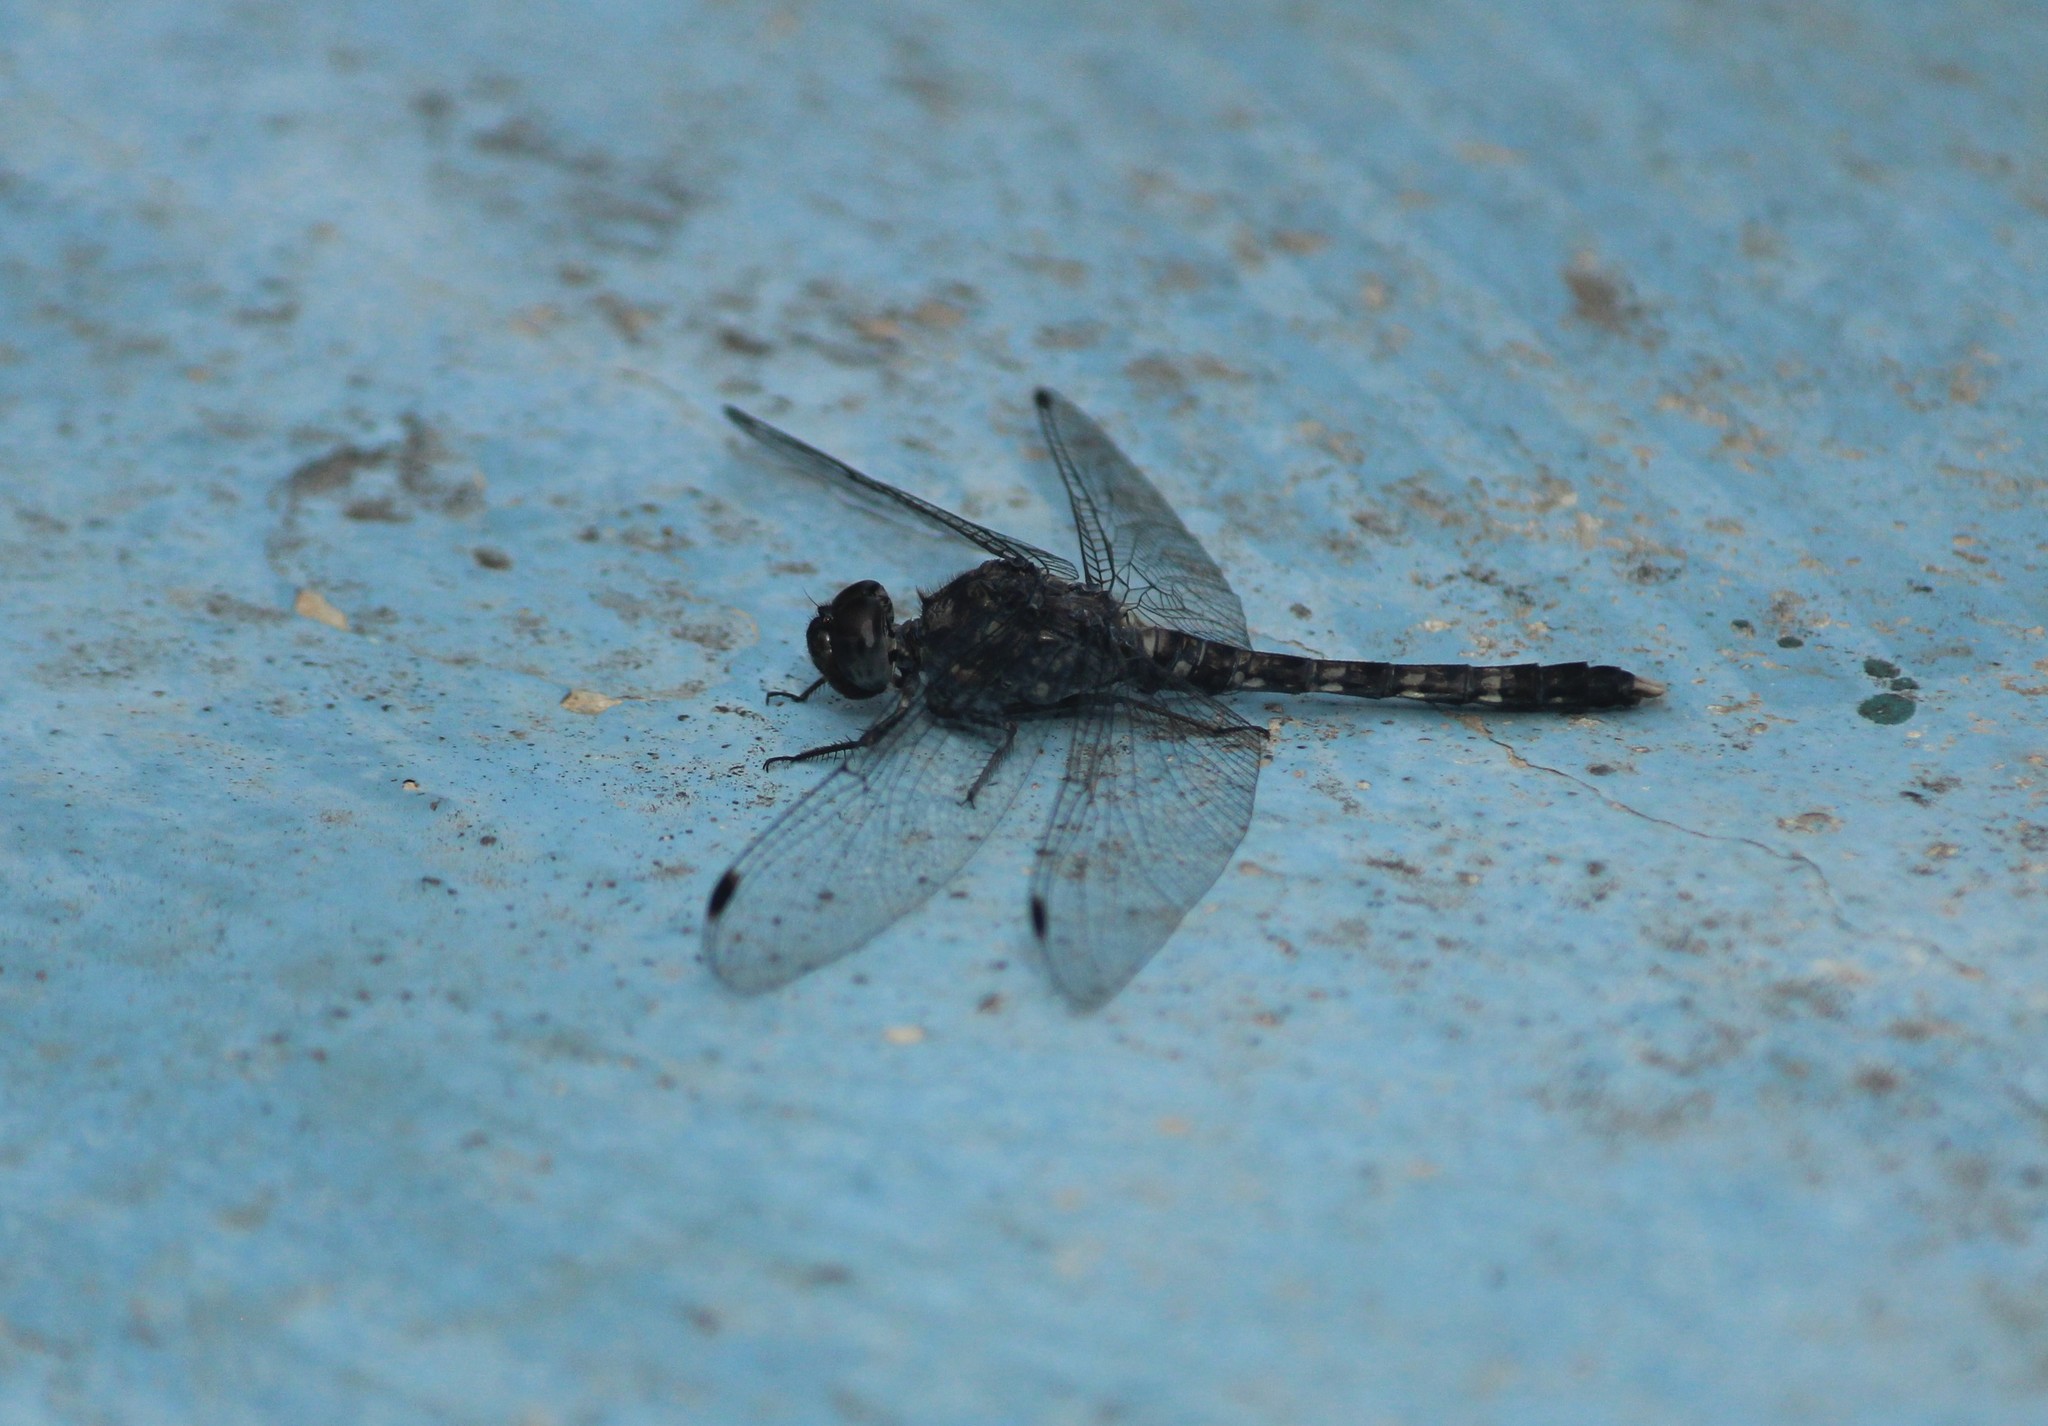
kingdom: Animalia
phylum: Arthropoda
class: Insecta
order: Odonata
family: Libellulidae
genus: Bradinopyga
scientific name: Bradinopyga geminata
